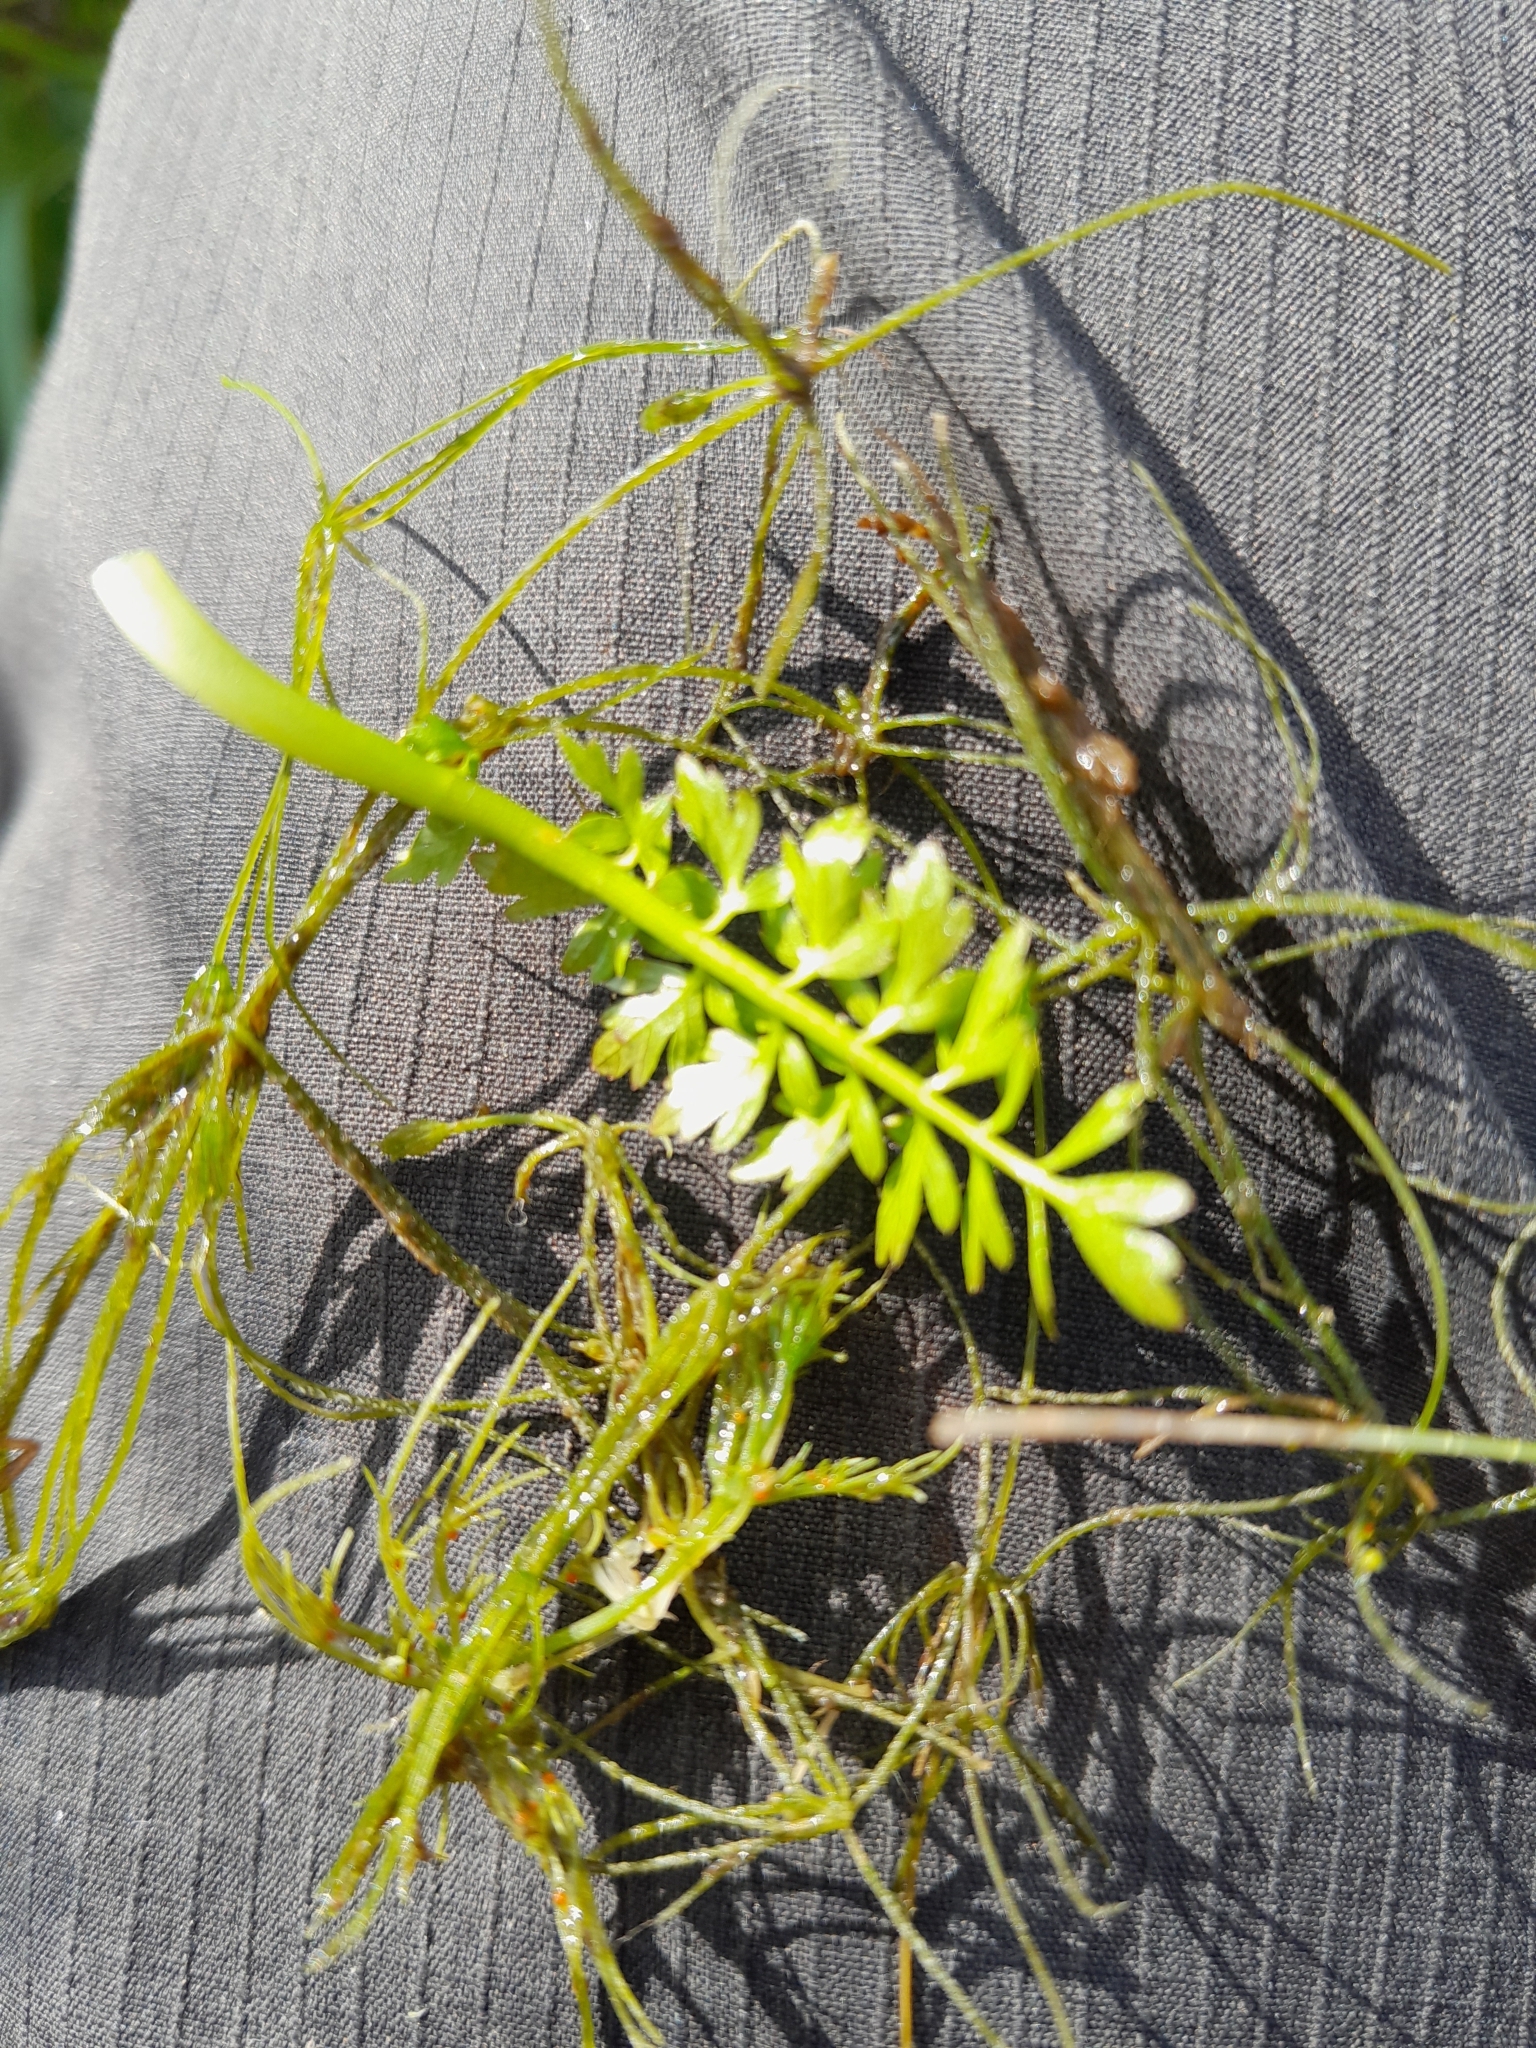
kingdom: Plantae
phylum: Charophyta
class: Charophyceae
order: Charales
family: Characeae
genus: Chara
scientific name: Chara vulgaris
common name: Common stonewort
